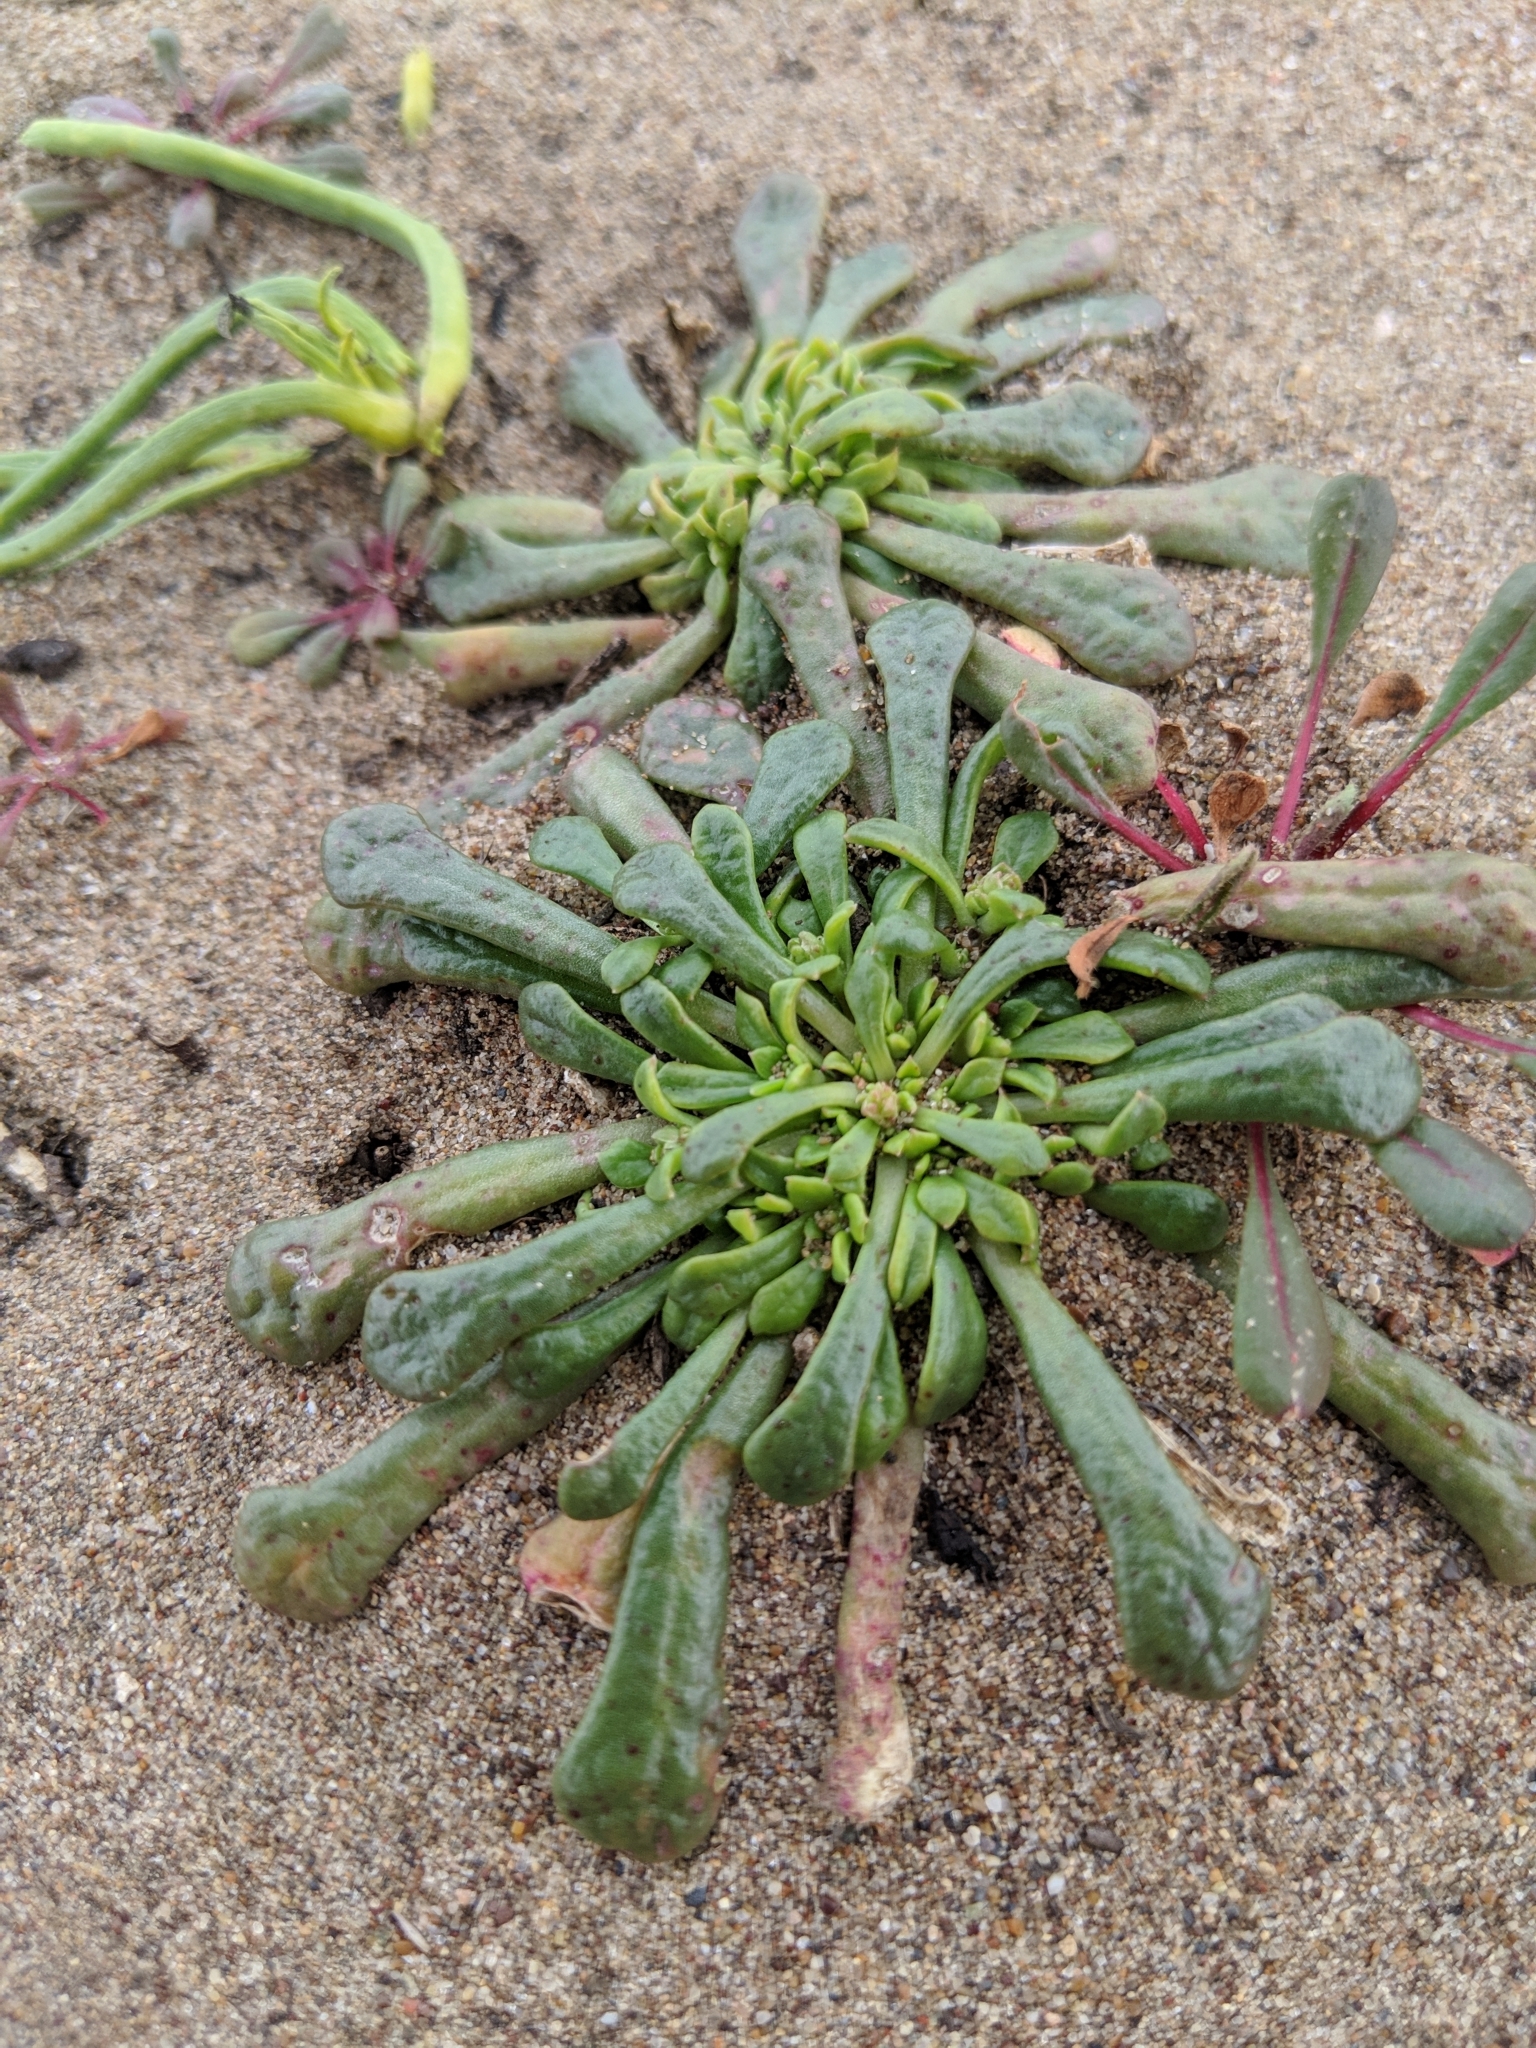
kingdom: Plantae
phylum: Tracheophyta
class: Magnoliopsida
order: Caryophyllales
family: Montiaceae
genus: Calyptridium
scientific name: Calyptridium monandrum
